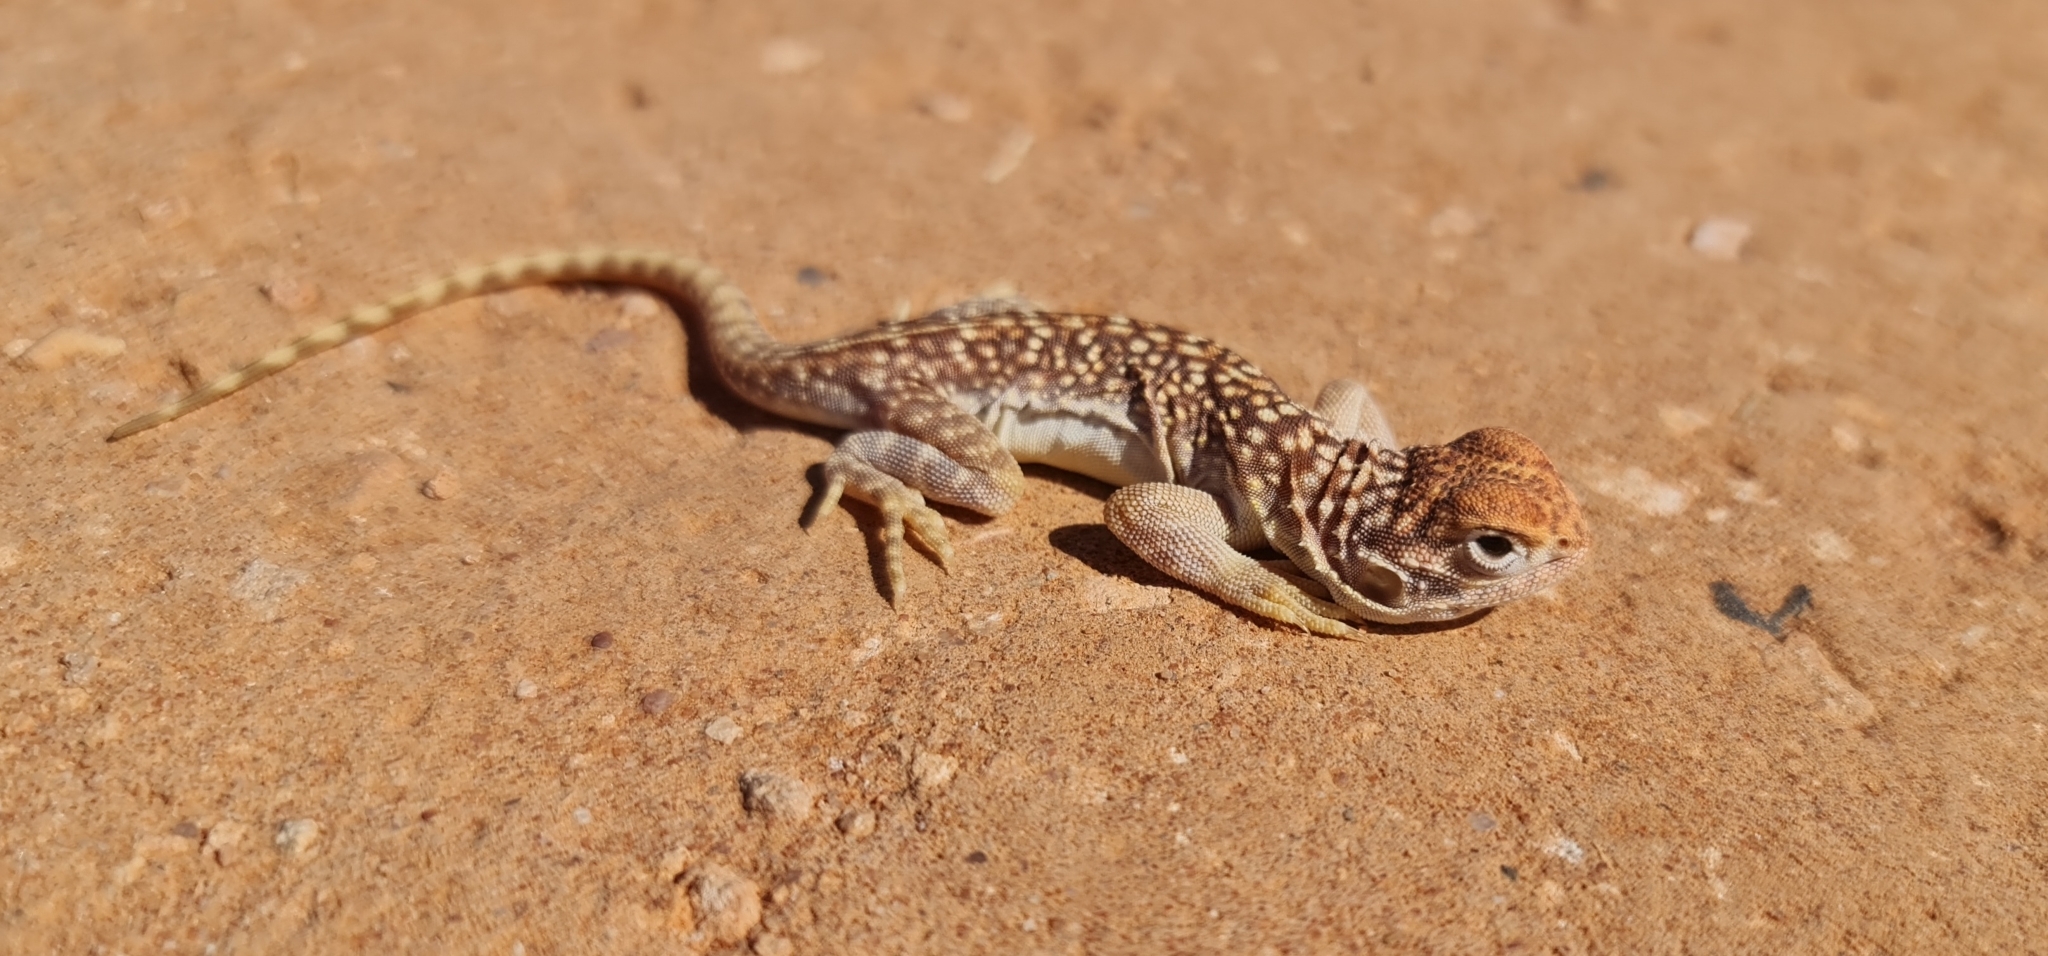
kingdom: Animalia
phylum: Chordata
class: Squamata
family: Agamidae
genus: Ctenophorus
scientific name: Ctenophorus nuchalis
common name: Central netted dragon
